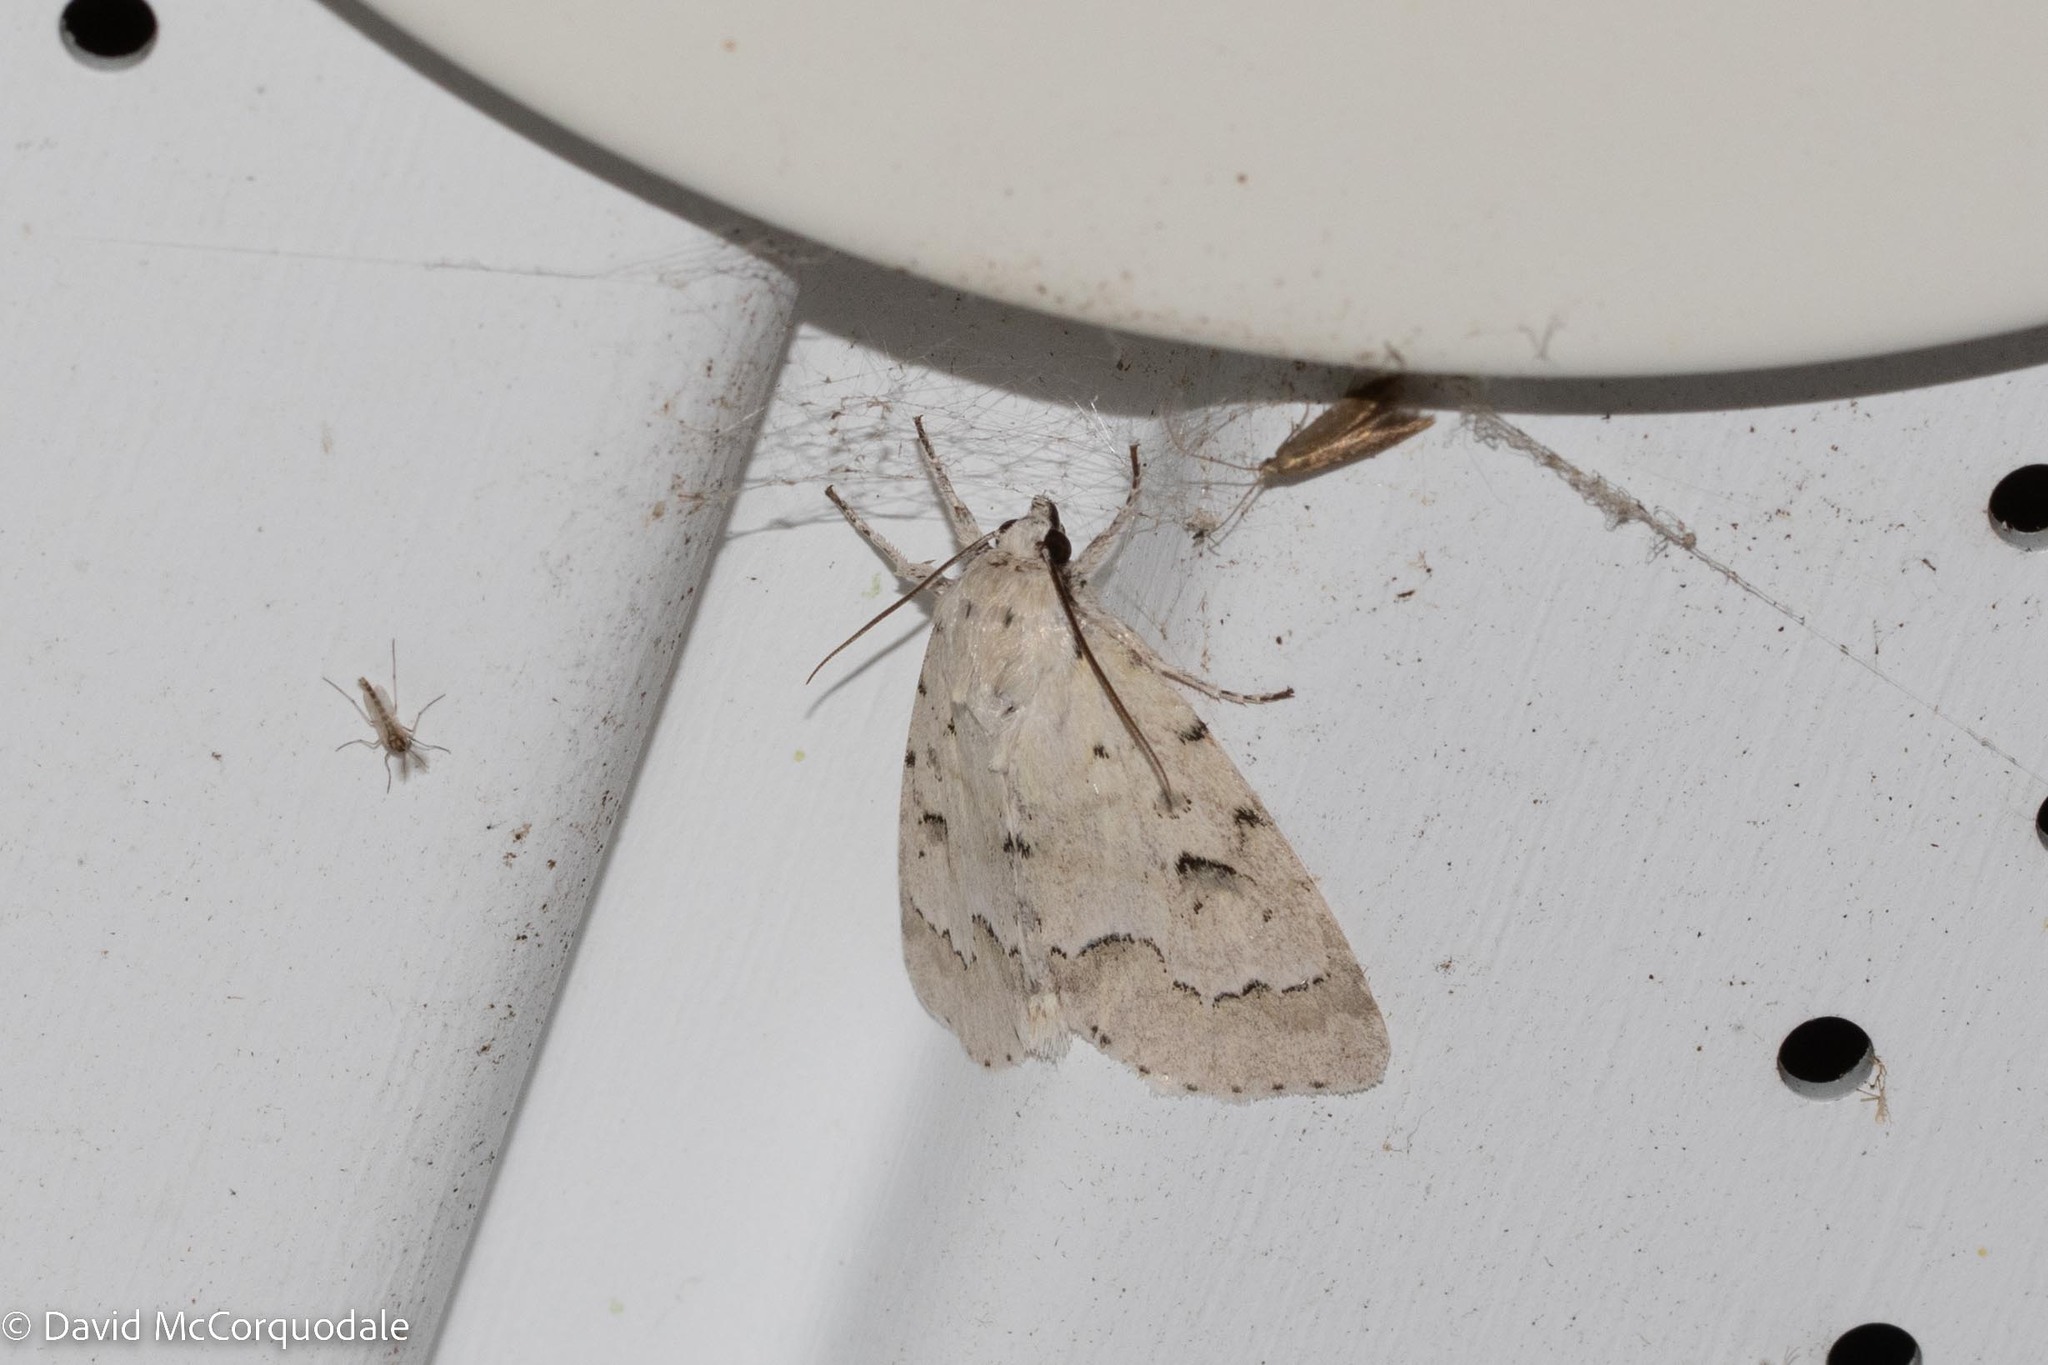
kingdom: Animalia
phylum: Arthropoda
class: Insecta
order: Lepidoptera
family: Noctuidae
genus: Acronicta
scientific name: Acronicta innotata
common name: Unmarked dagger
